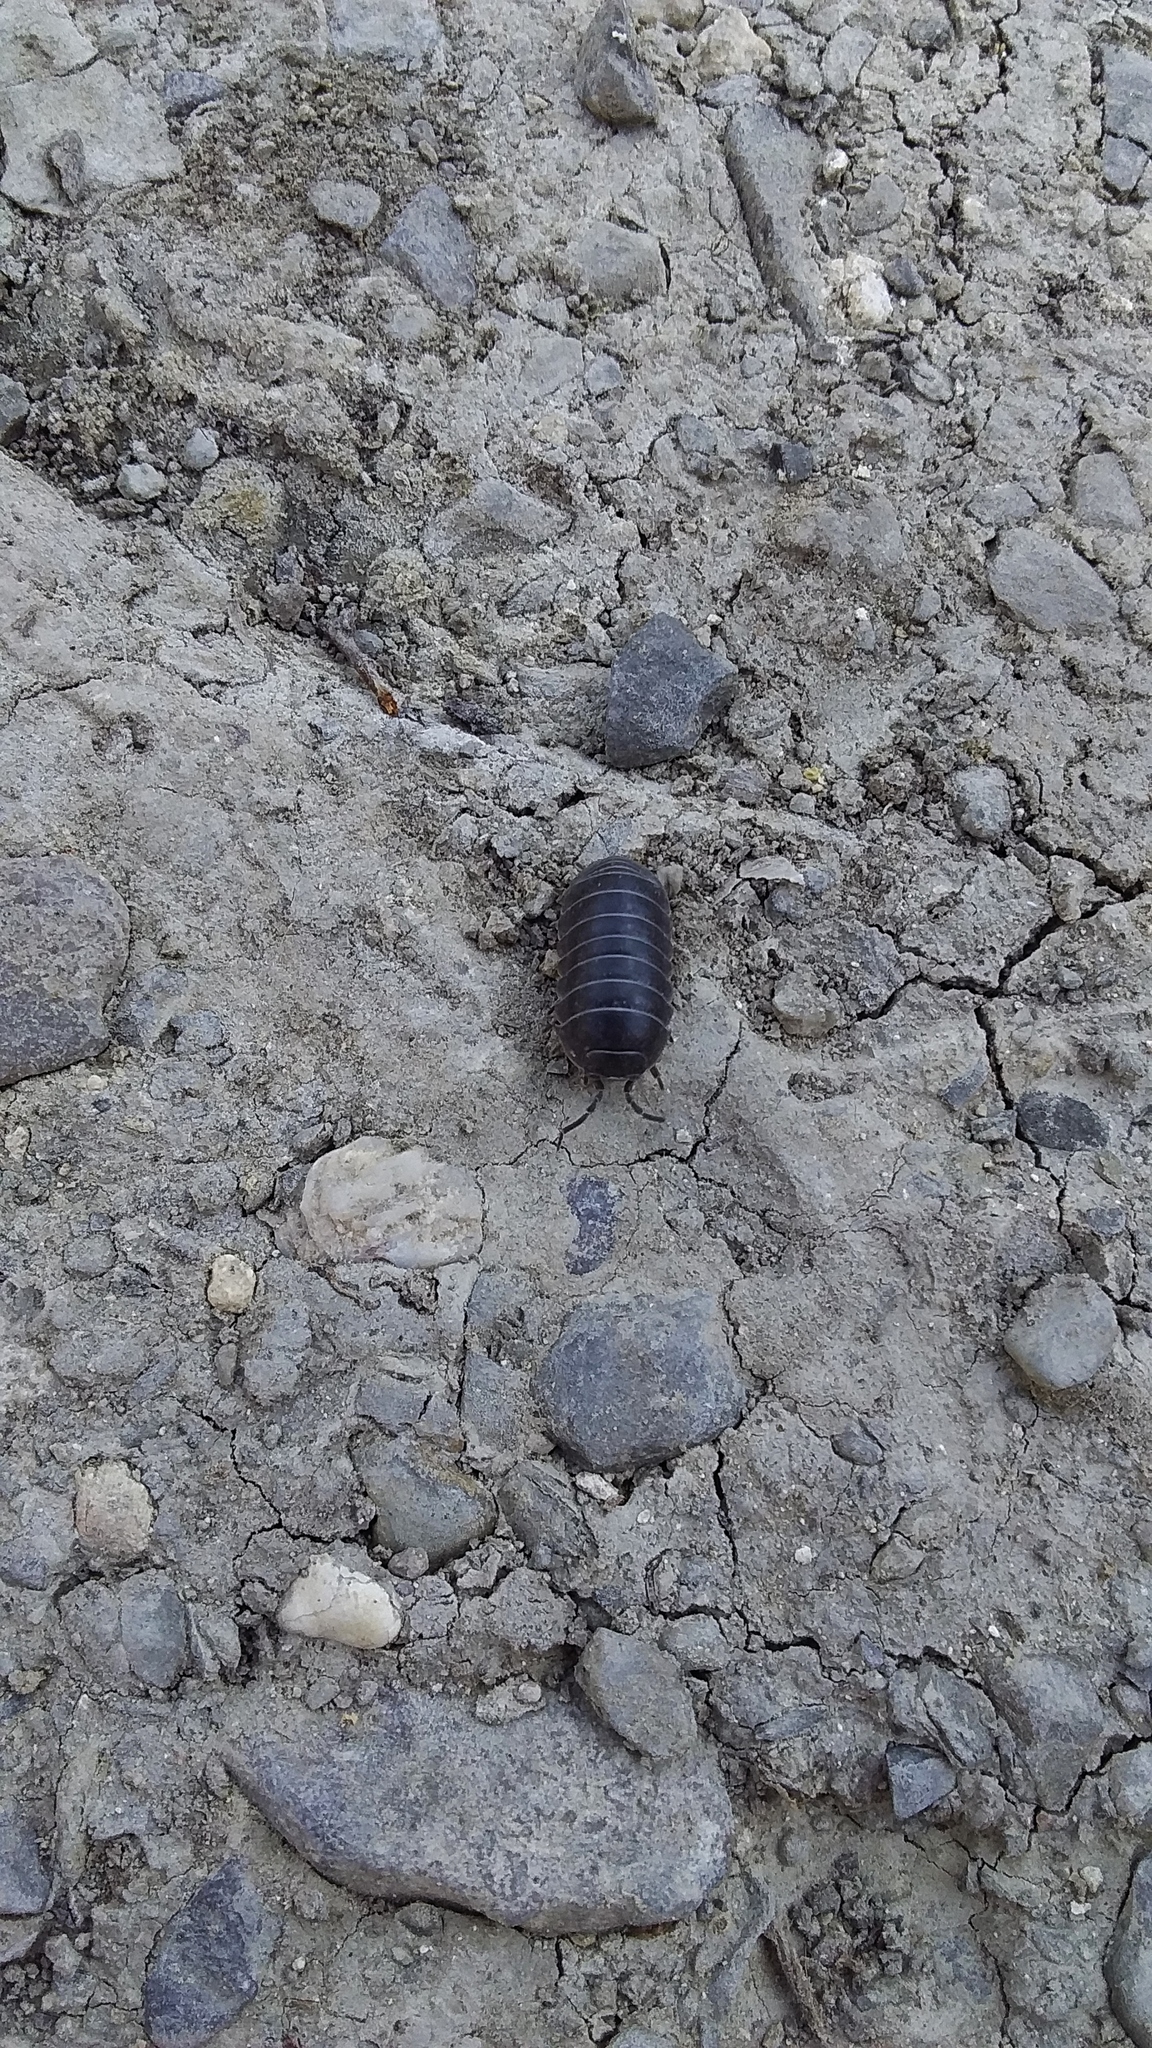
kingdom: Animalia
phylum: Arthropoda
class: Malacostraca
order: Isopoda
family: Armadillidiidae
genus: Armadillidium
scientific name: Armadillidium vulgare
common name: Common pill woodlouse
